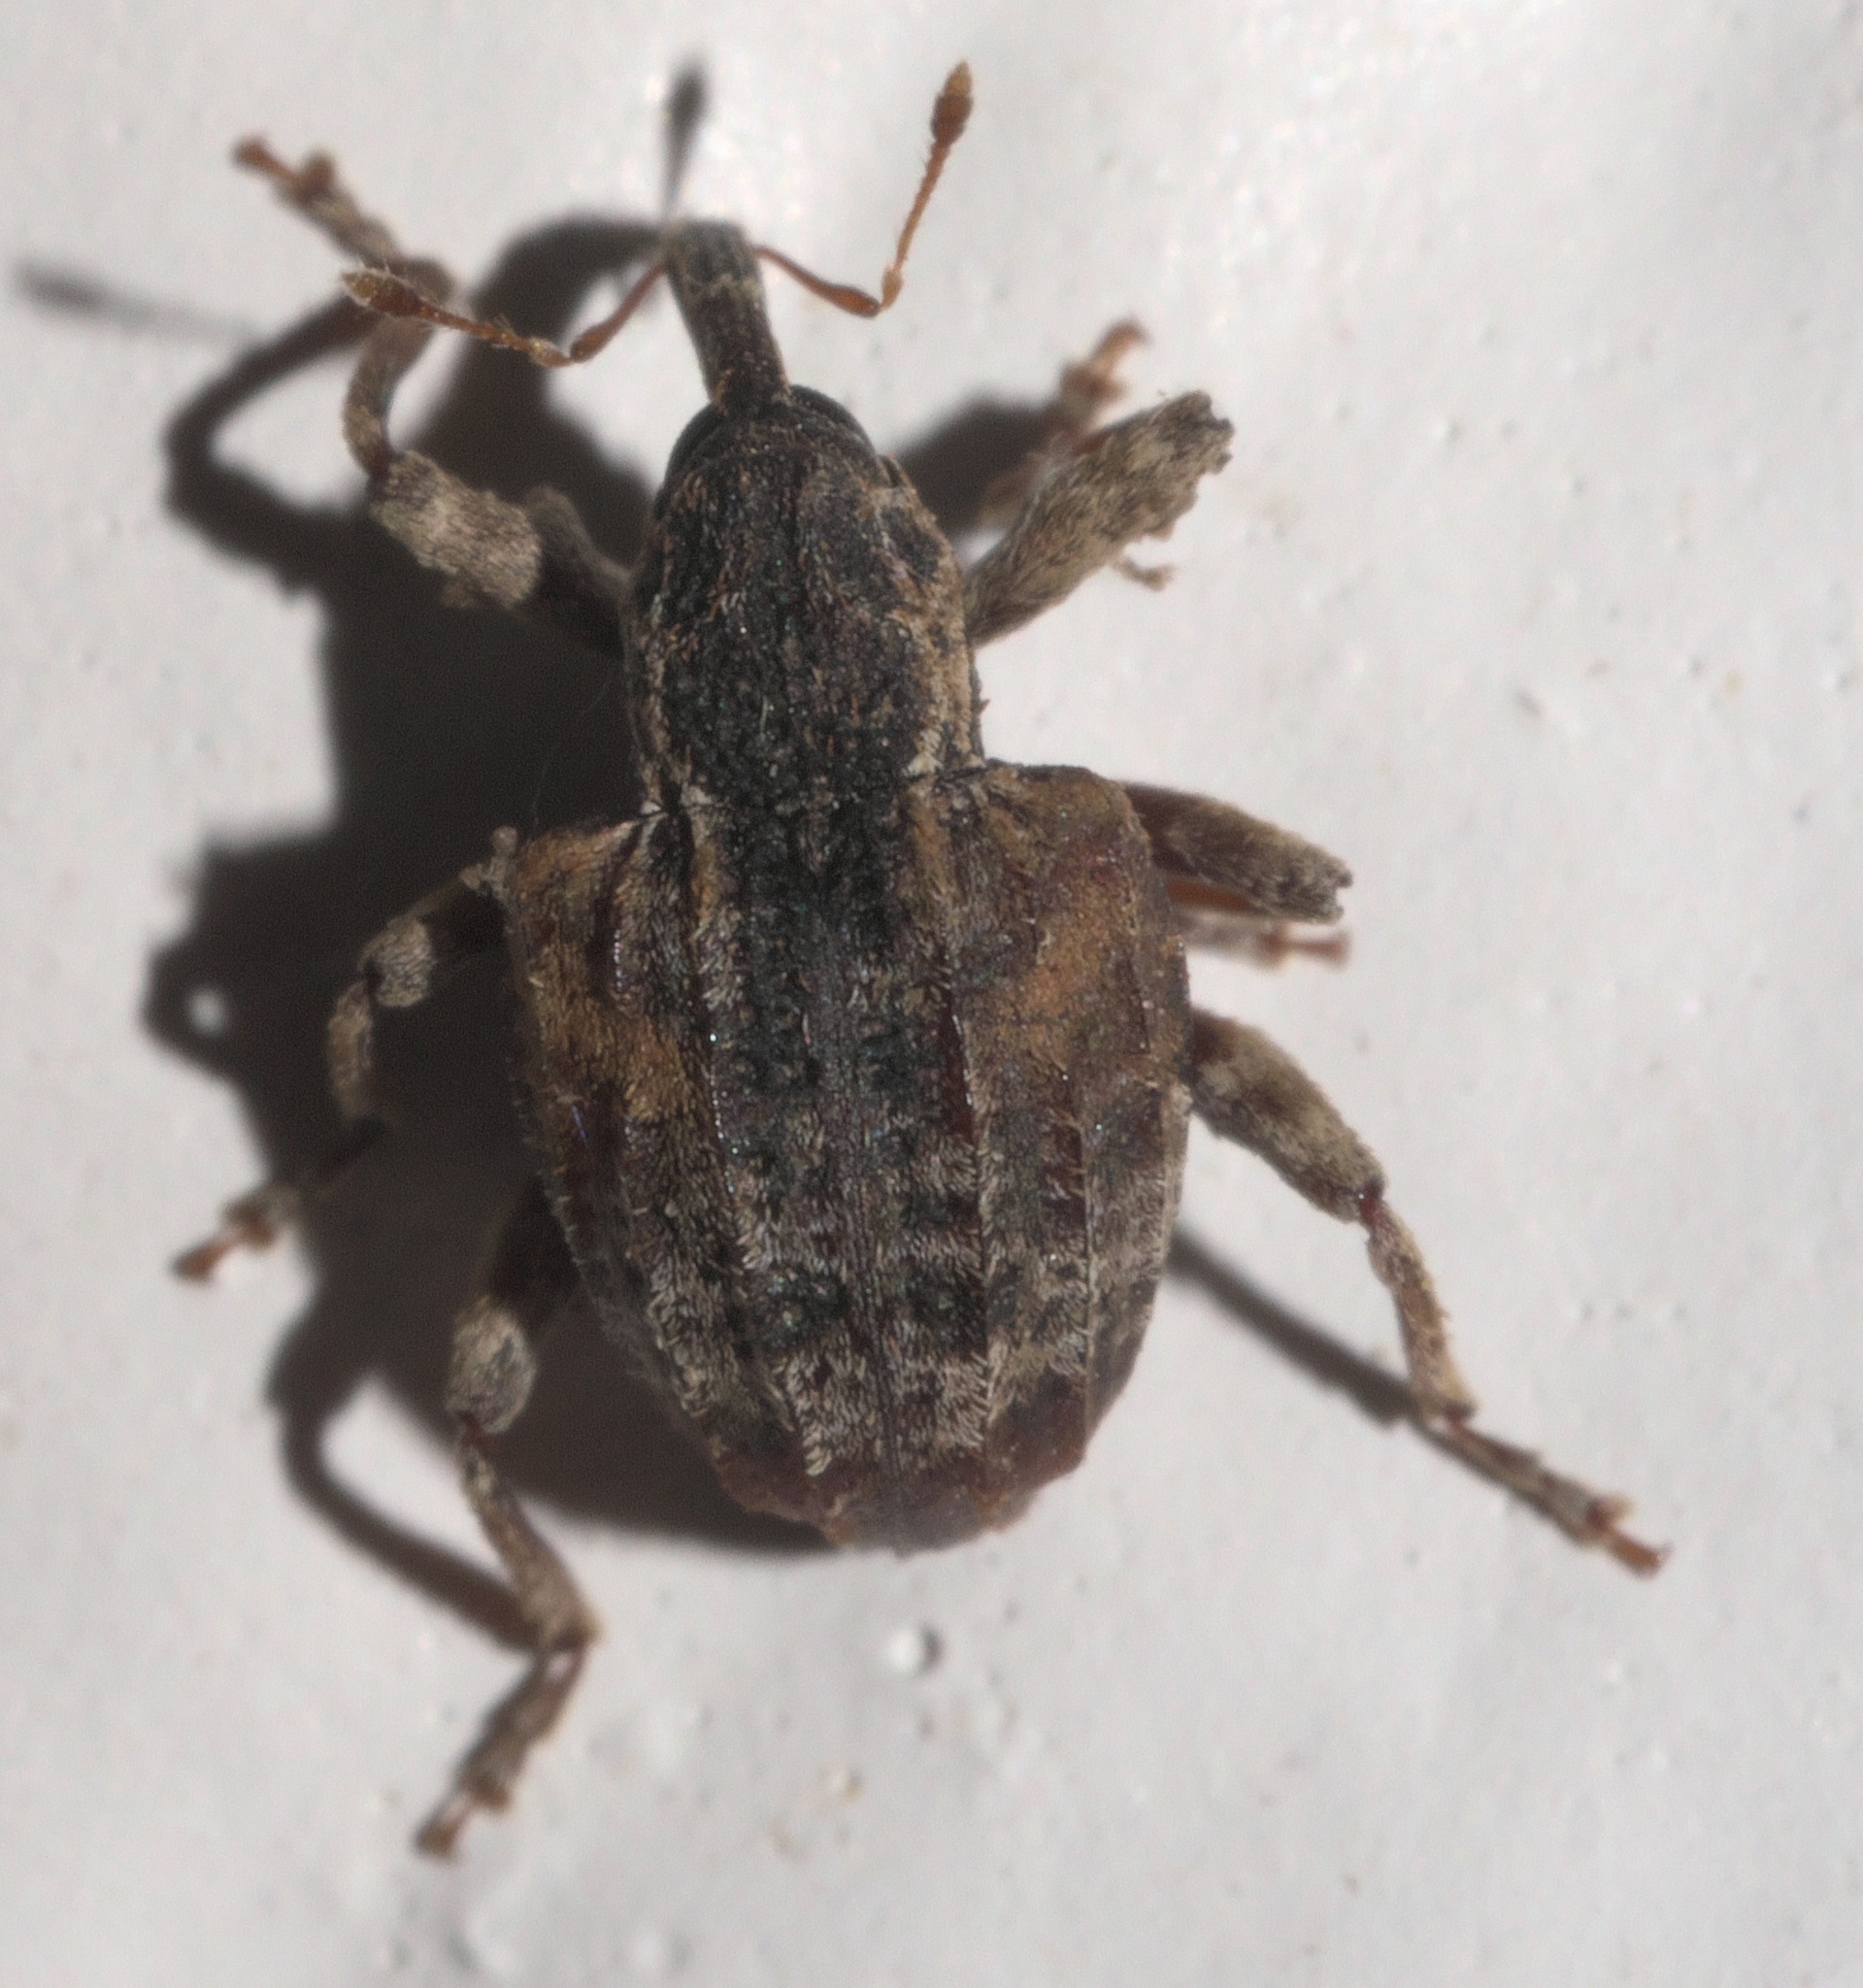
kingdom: Animalia
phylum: Arthropoda
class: Insecta
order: Coleoptera
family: Curculionidae
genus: Conotrachelus
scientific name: Conotrachelus anaglypticus
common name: Cambium curculio
